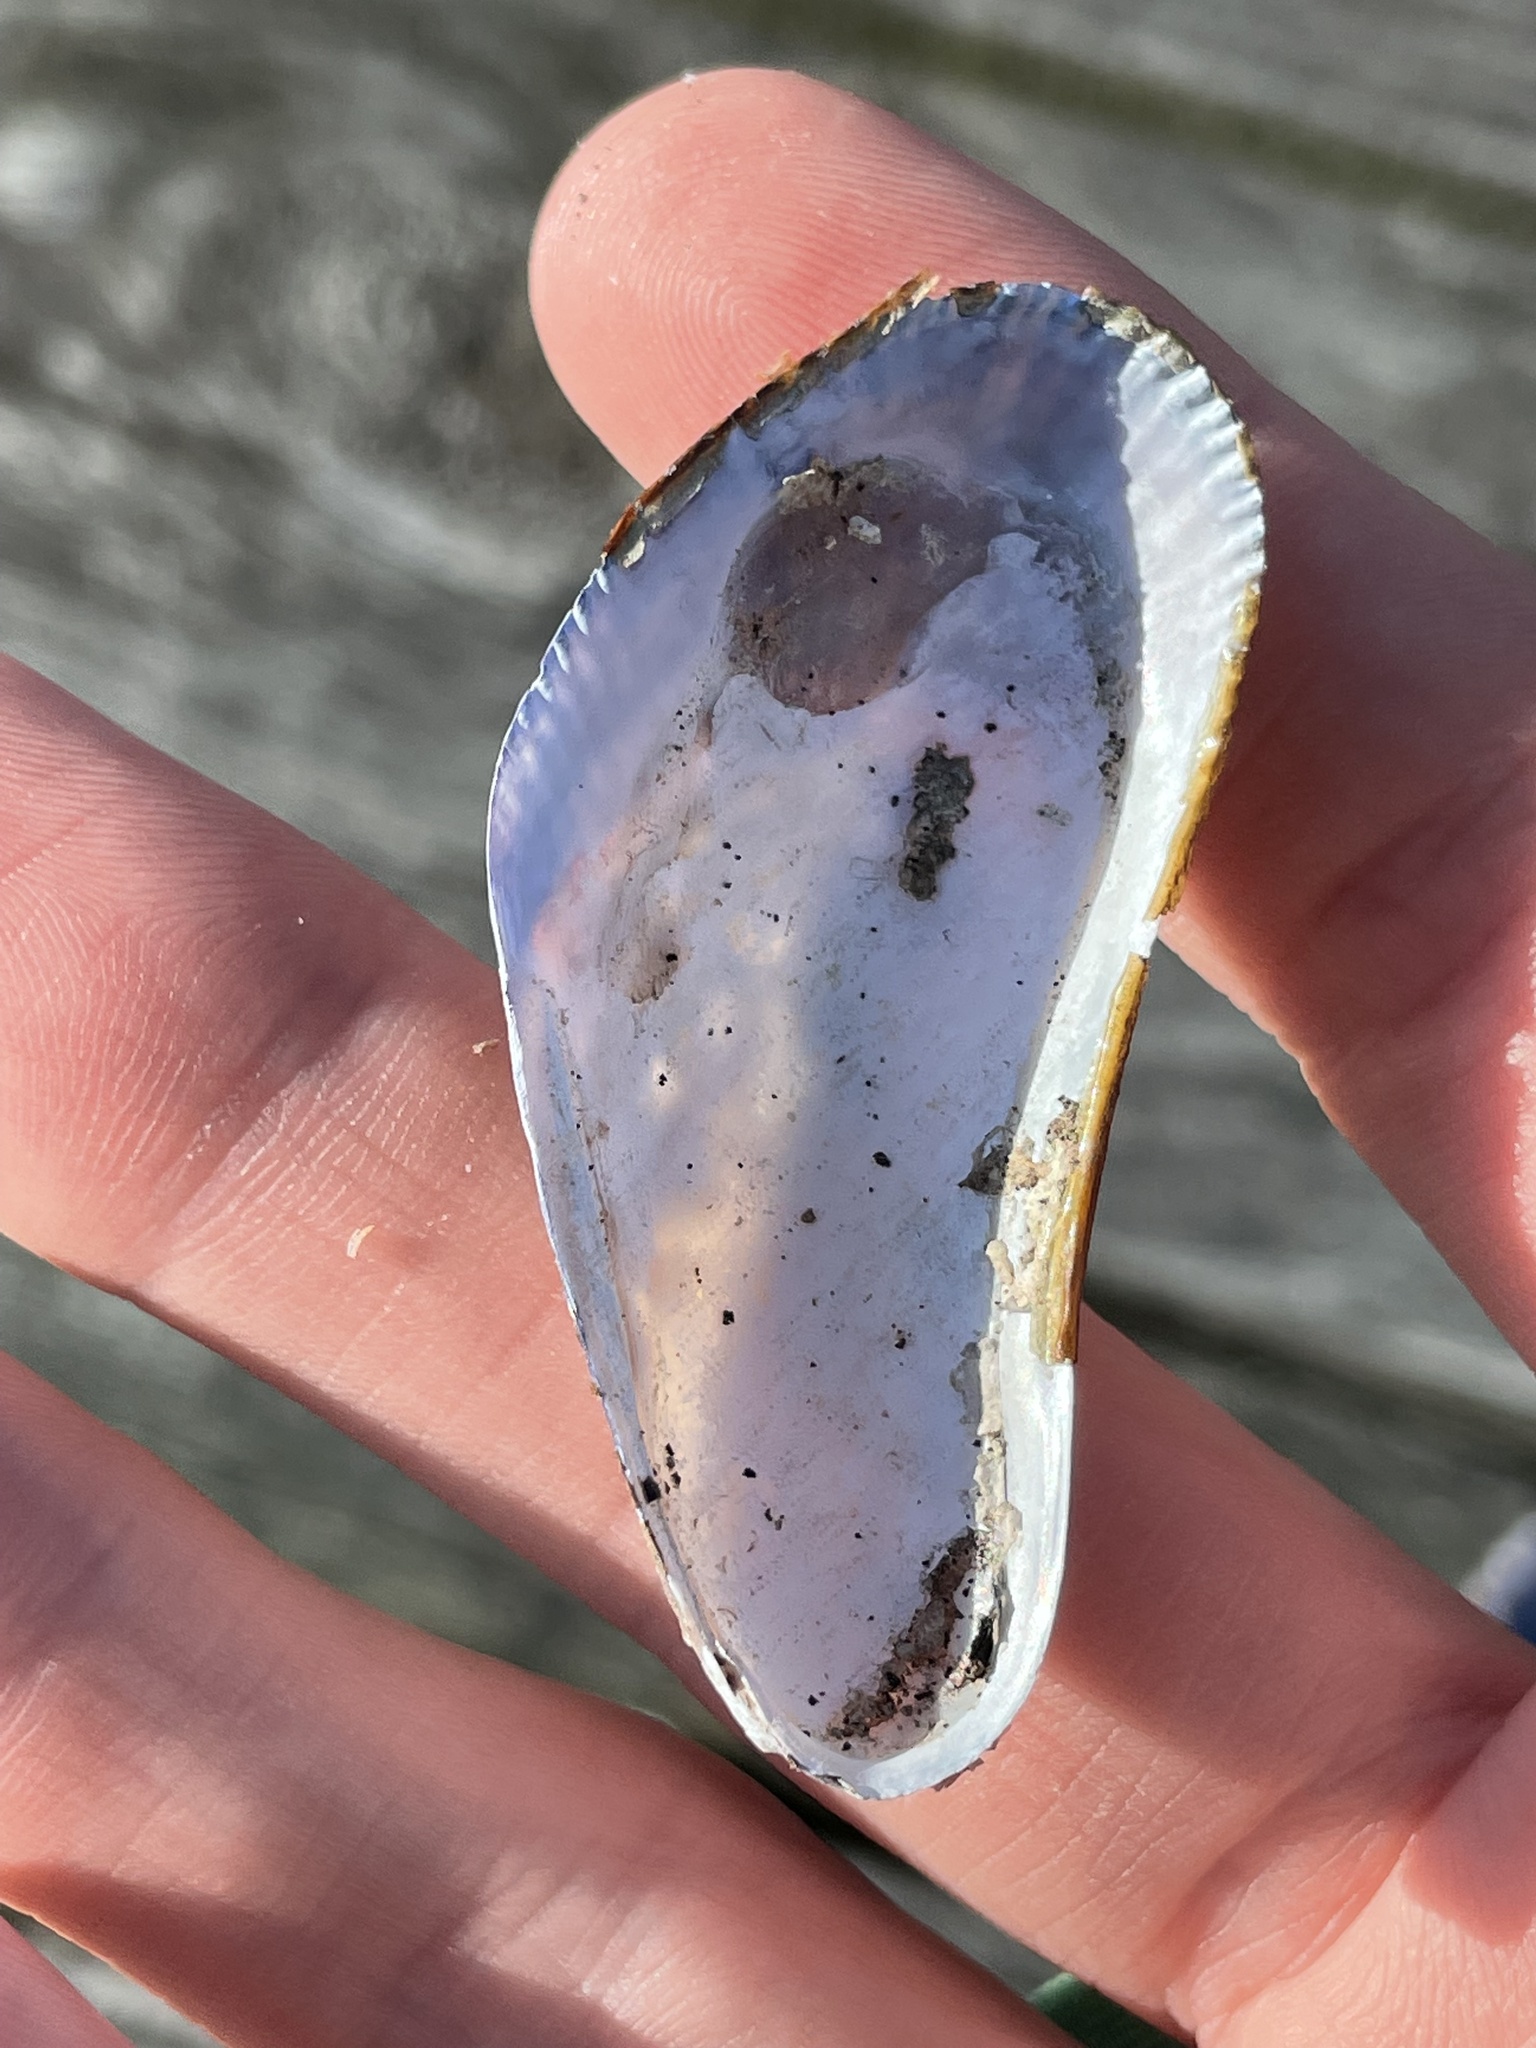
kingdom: Animalia
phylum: Mollusca
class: Bivalvia
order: Mytilida
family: Mytilidae
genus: Geukensia
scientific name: Geukensia demissa
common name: Ribbed mussel
